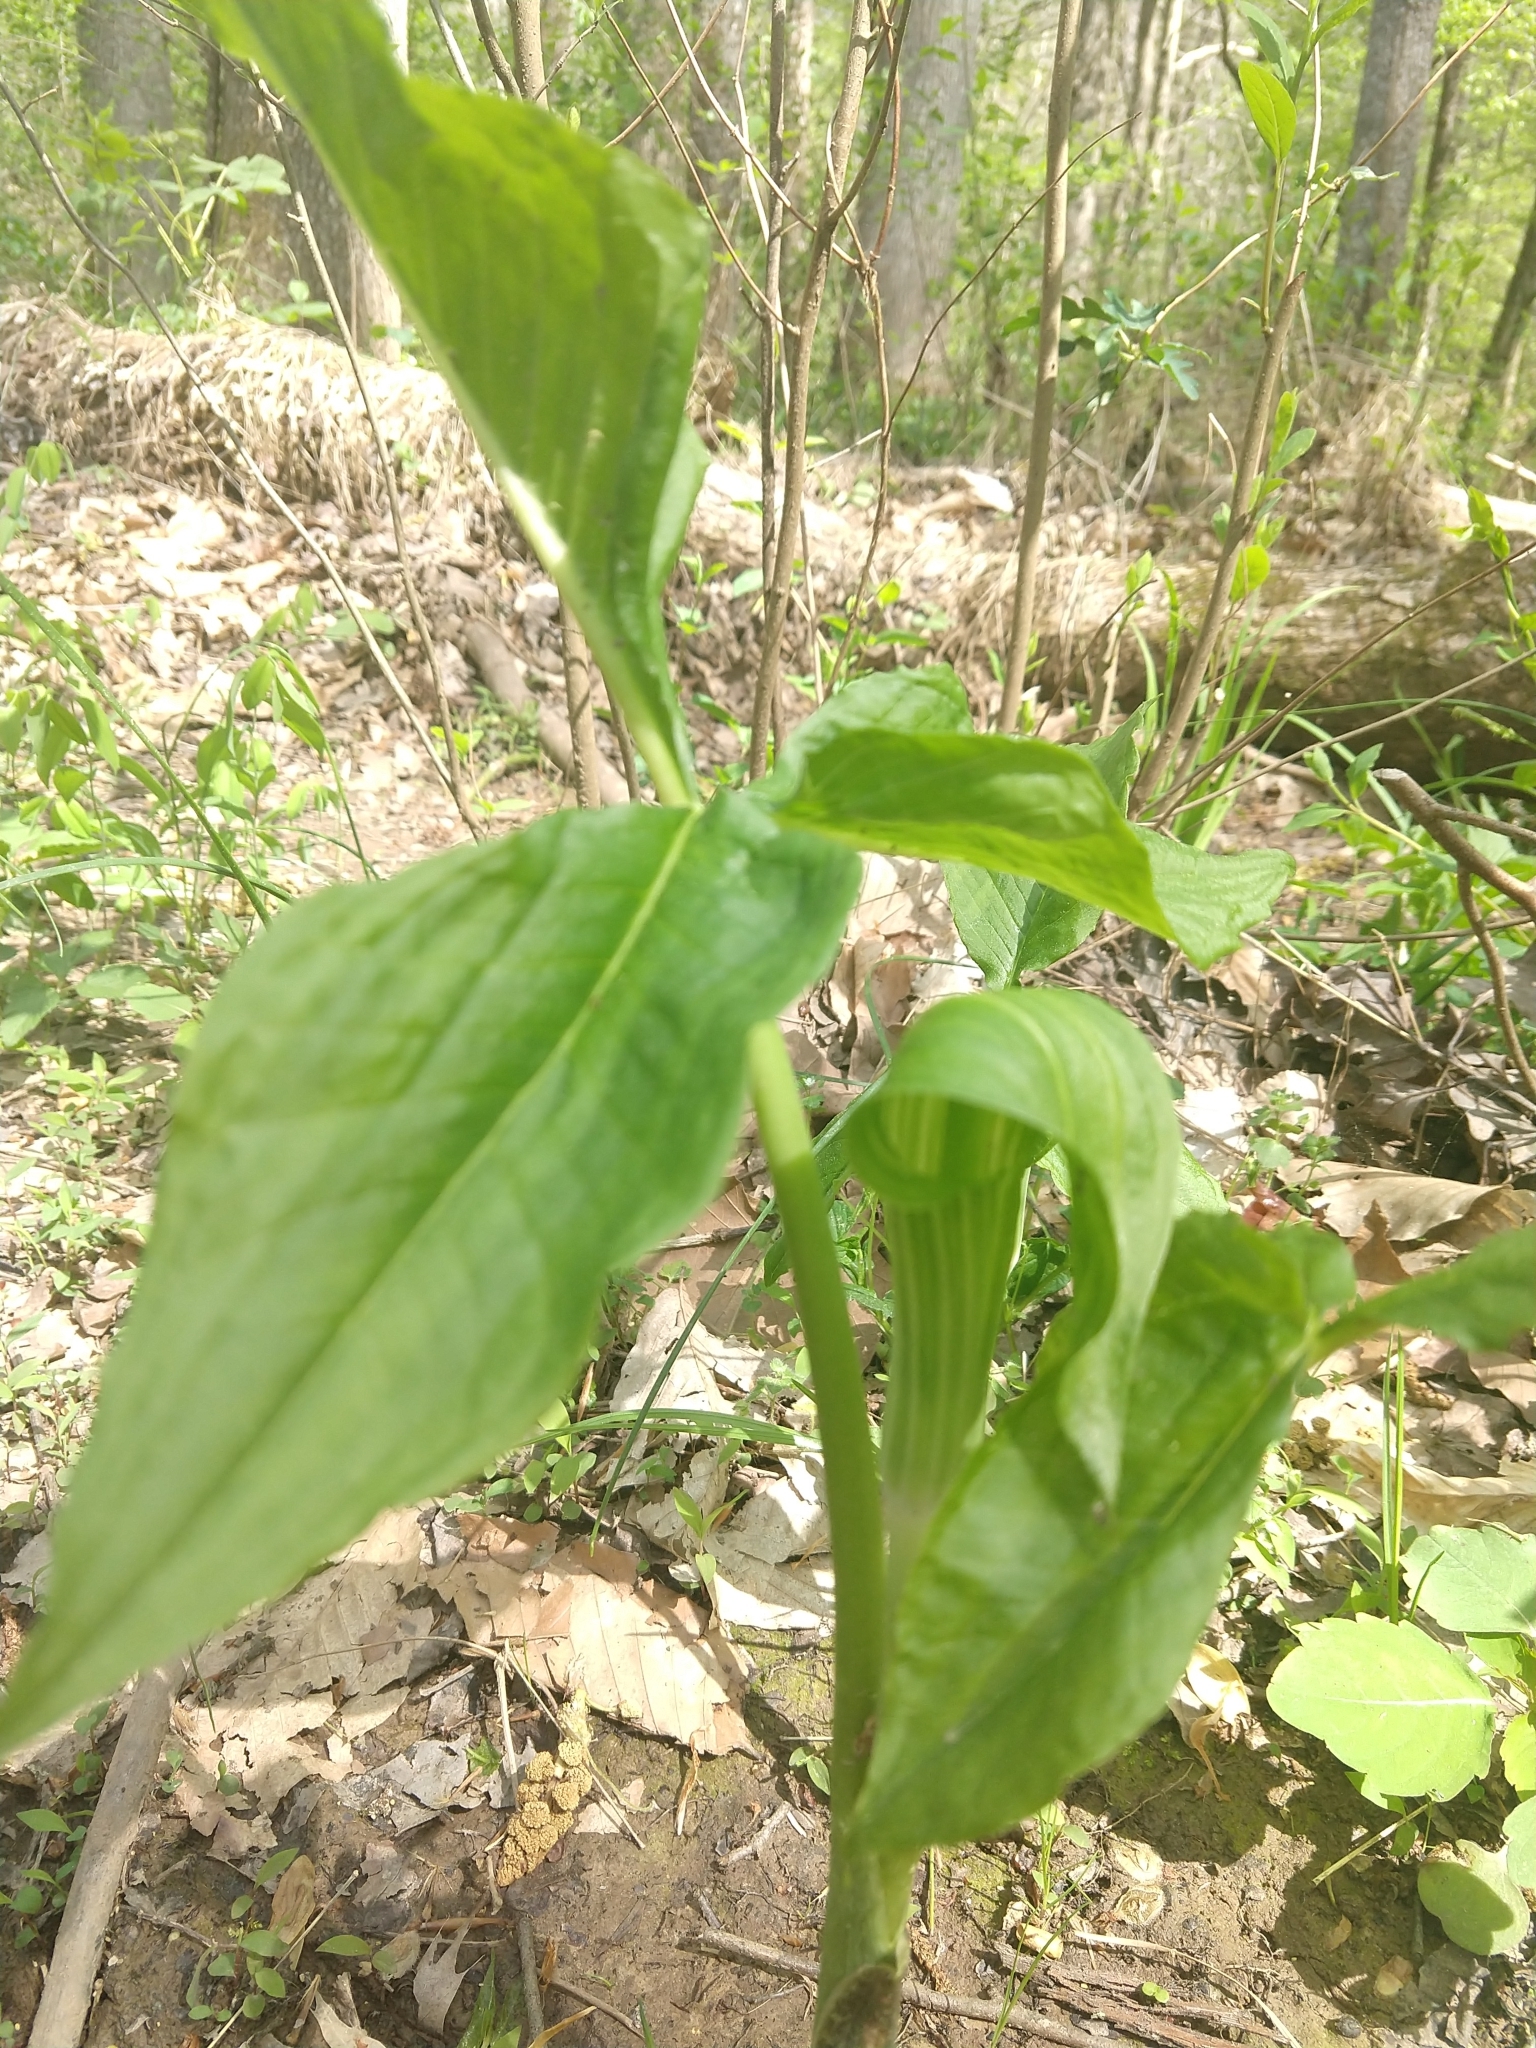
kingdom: Plantae
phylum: Tracheophyta
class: Liliopsida
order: Alismatales
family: Araceae
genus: Arisaema
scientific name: Arisaema triphyllum
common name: Jack-in-the-pulpit
